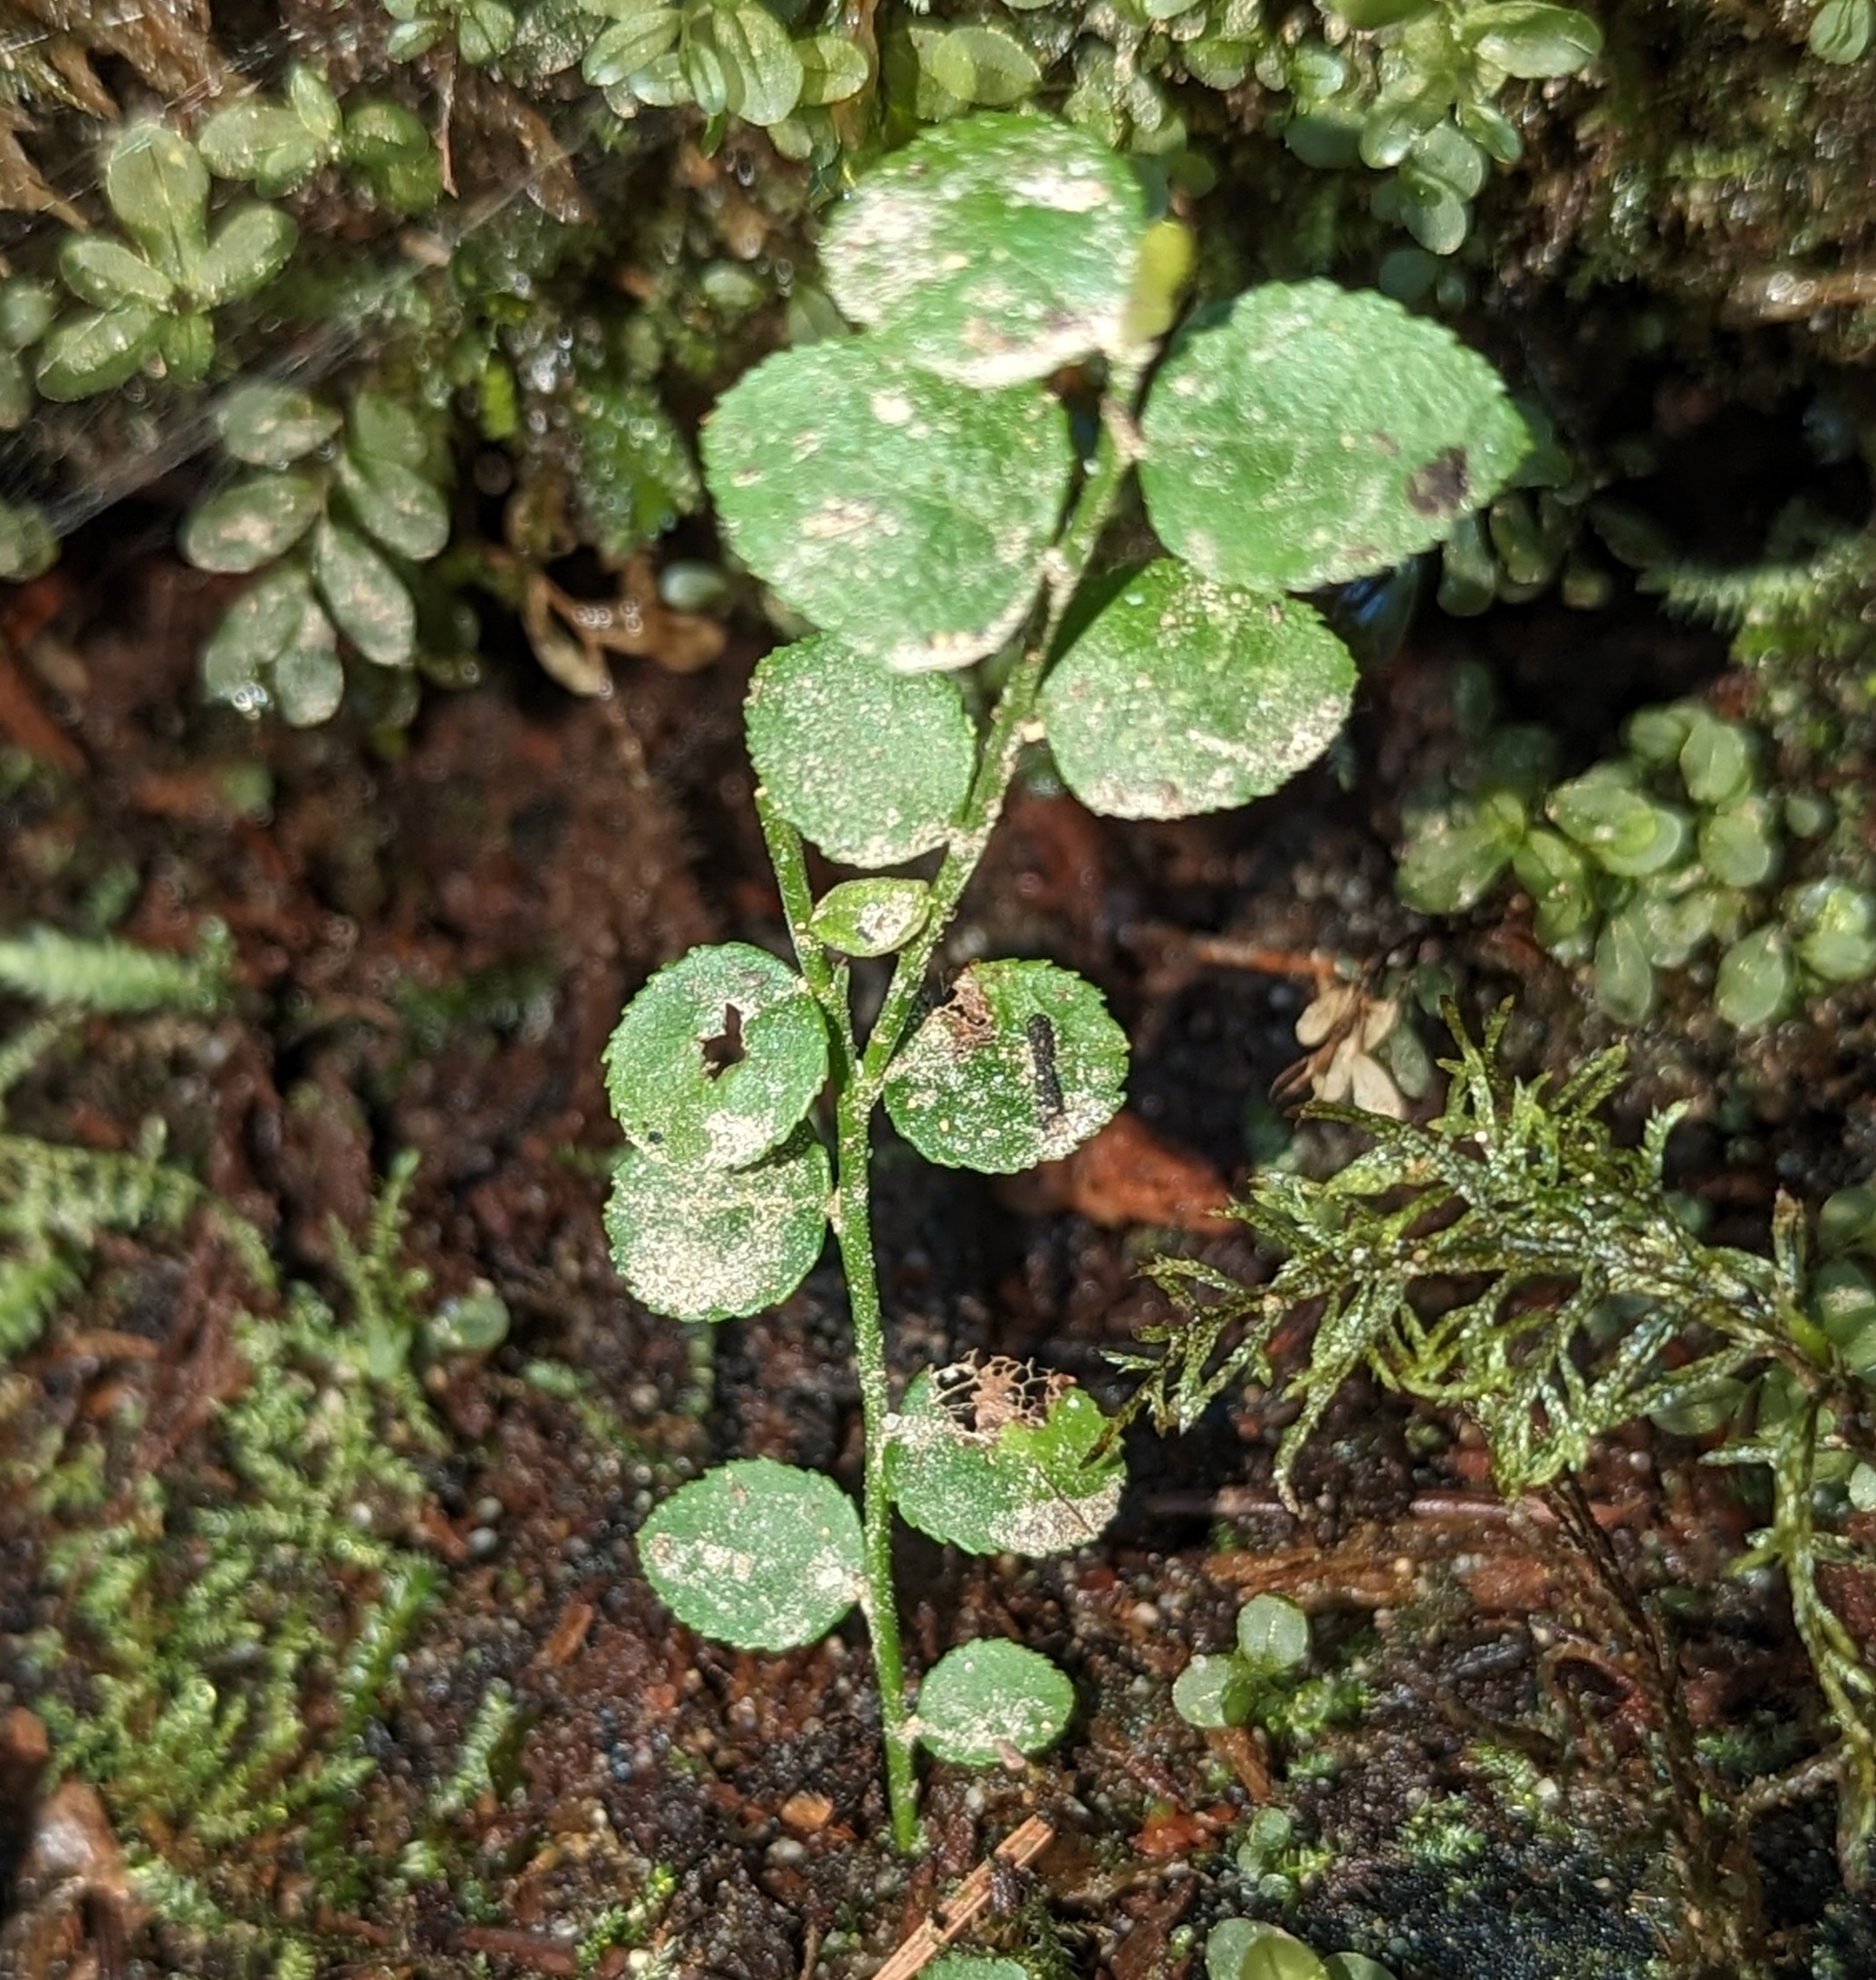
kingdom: Plantae
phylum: Tracheophyta
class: Magnoliopsida
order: Ericales
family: Ericaceae
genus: Vaccinium
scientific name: Vaccinium parvifolium
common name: Red-huckleberry
